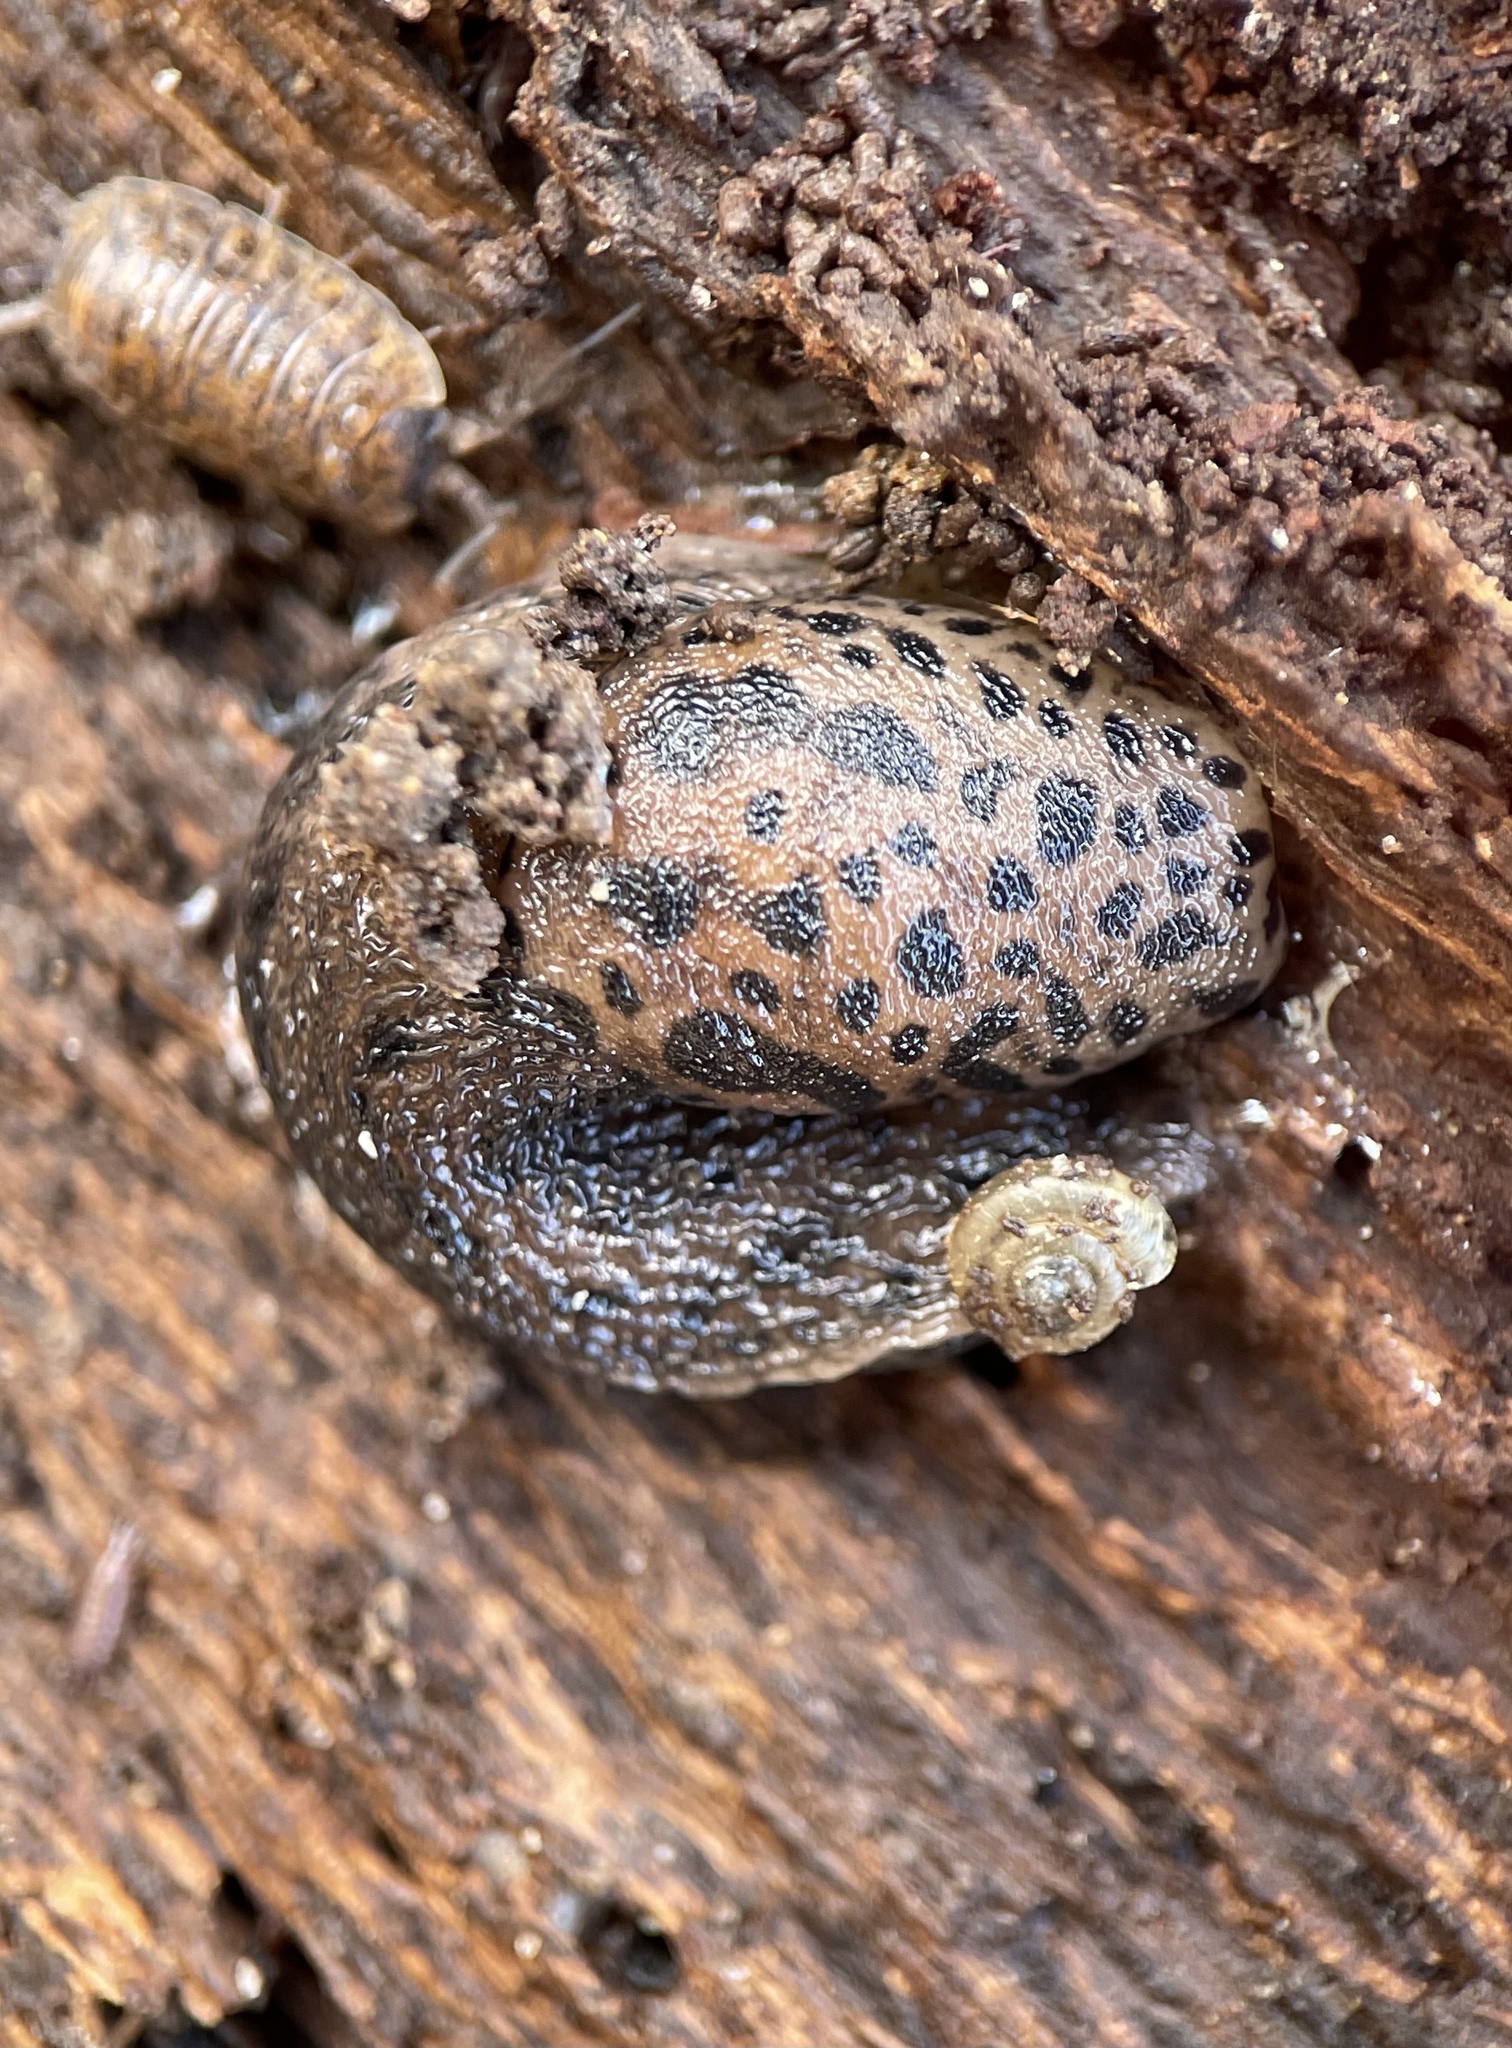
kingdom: Animalia
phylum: Mollusca
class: Gastropoda
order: Stylommatophora
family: Limacidae
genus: Limax
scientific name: Limax maximus
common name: Great grey slug
